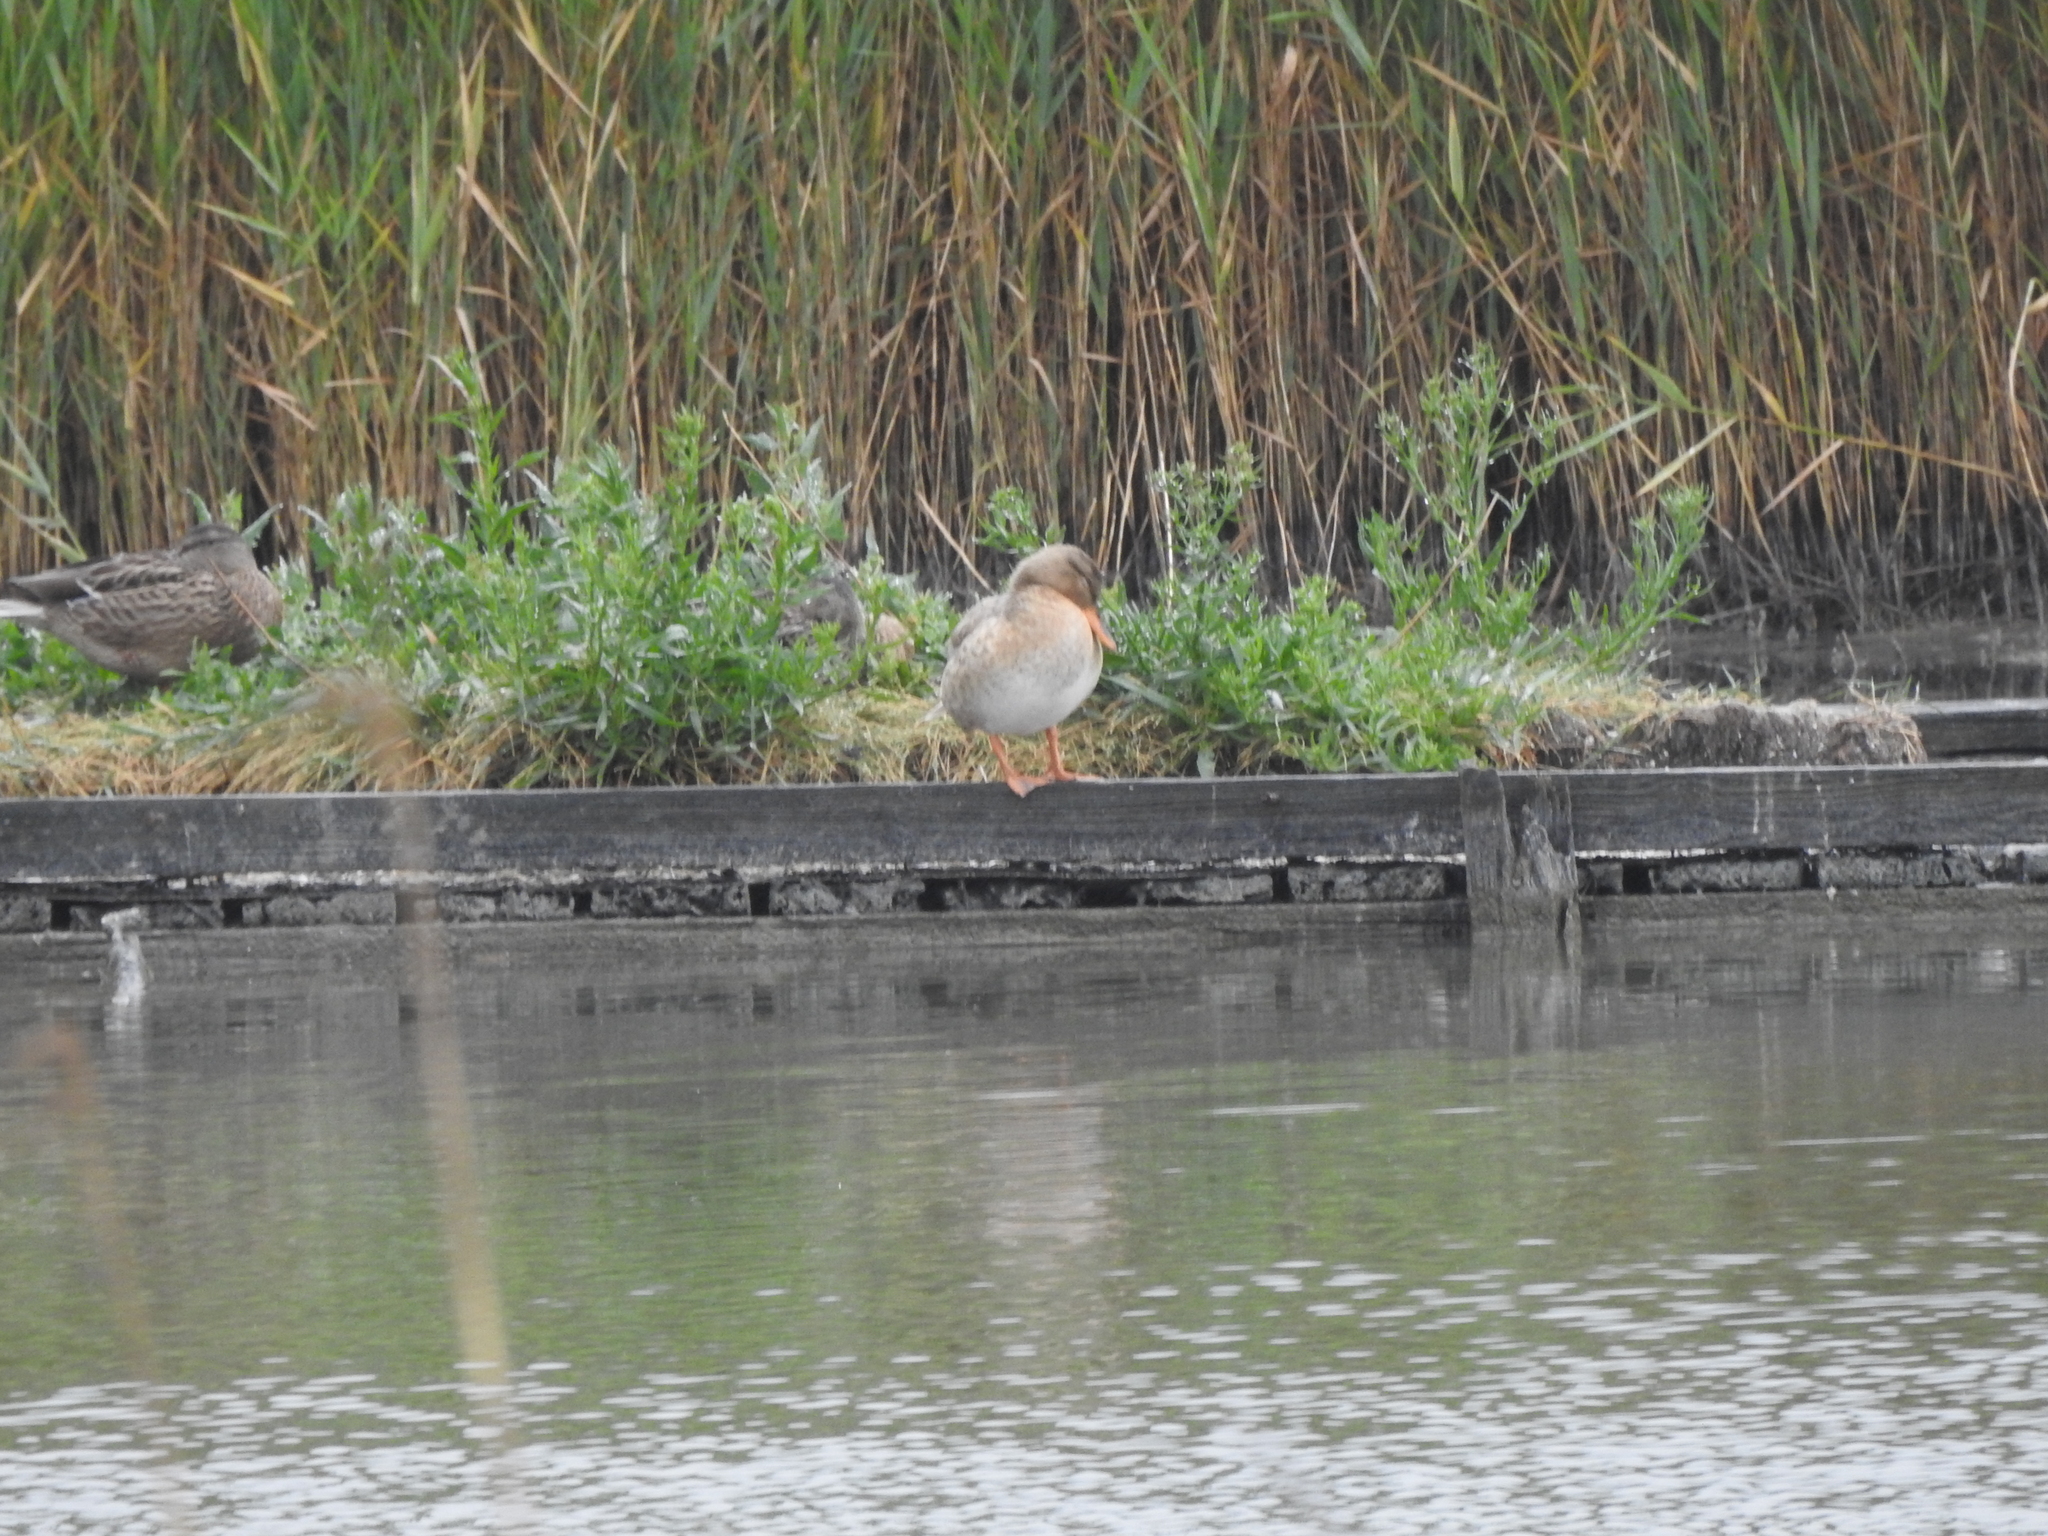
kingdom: Animalia
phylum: Chordata
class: Aves
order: Anseriformes
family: Anatidae
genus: Anas
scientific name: Anas platyrhynchos
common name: Mallard
